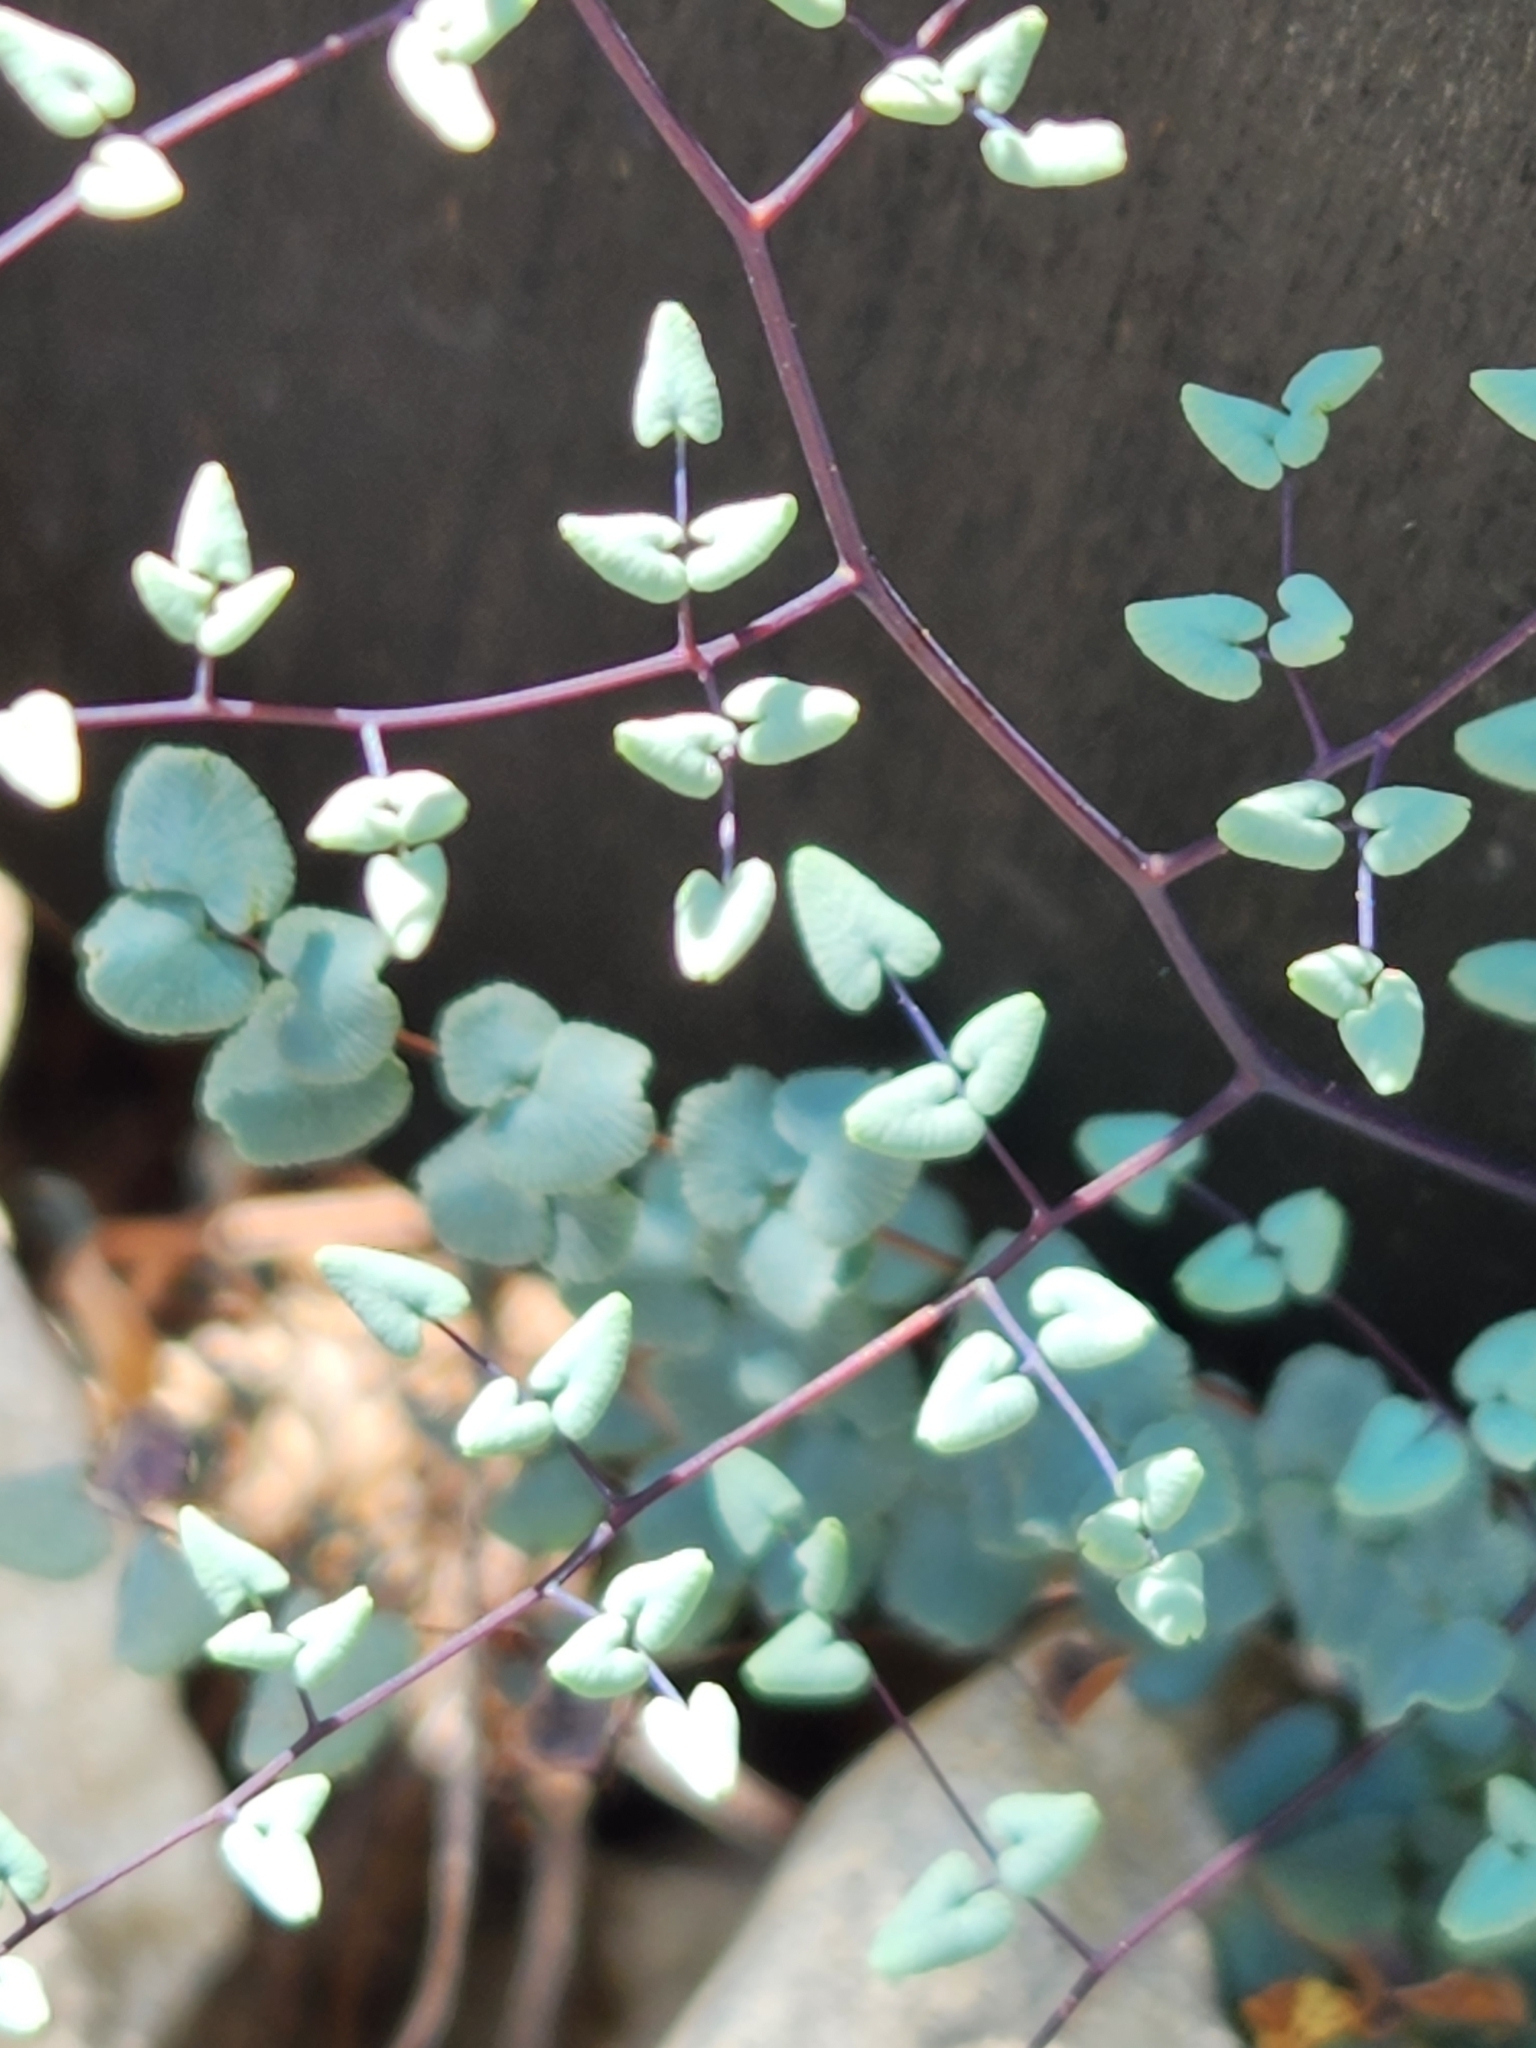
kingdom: Plantae
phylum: Tracheophyta
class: Polypodiopsida
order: Polypodiales
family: Pteridaceae
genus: Argyrochosma
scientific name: Argyrochosma microphylla
